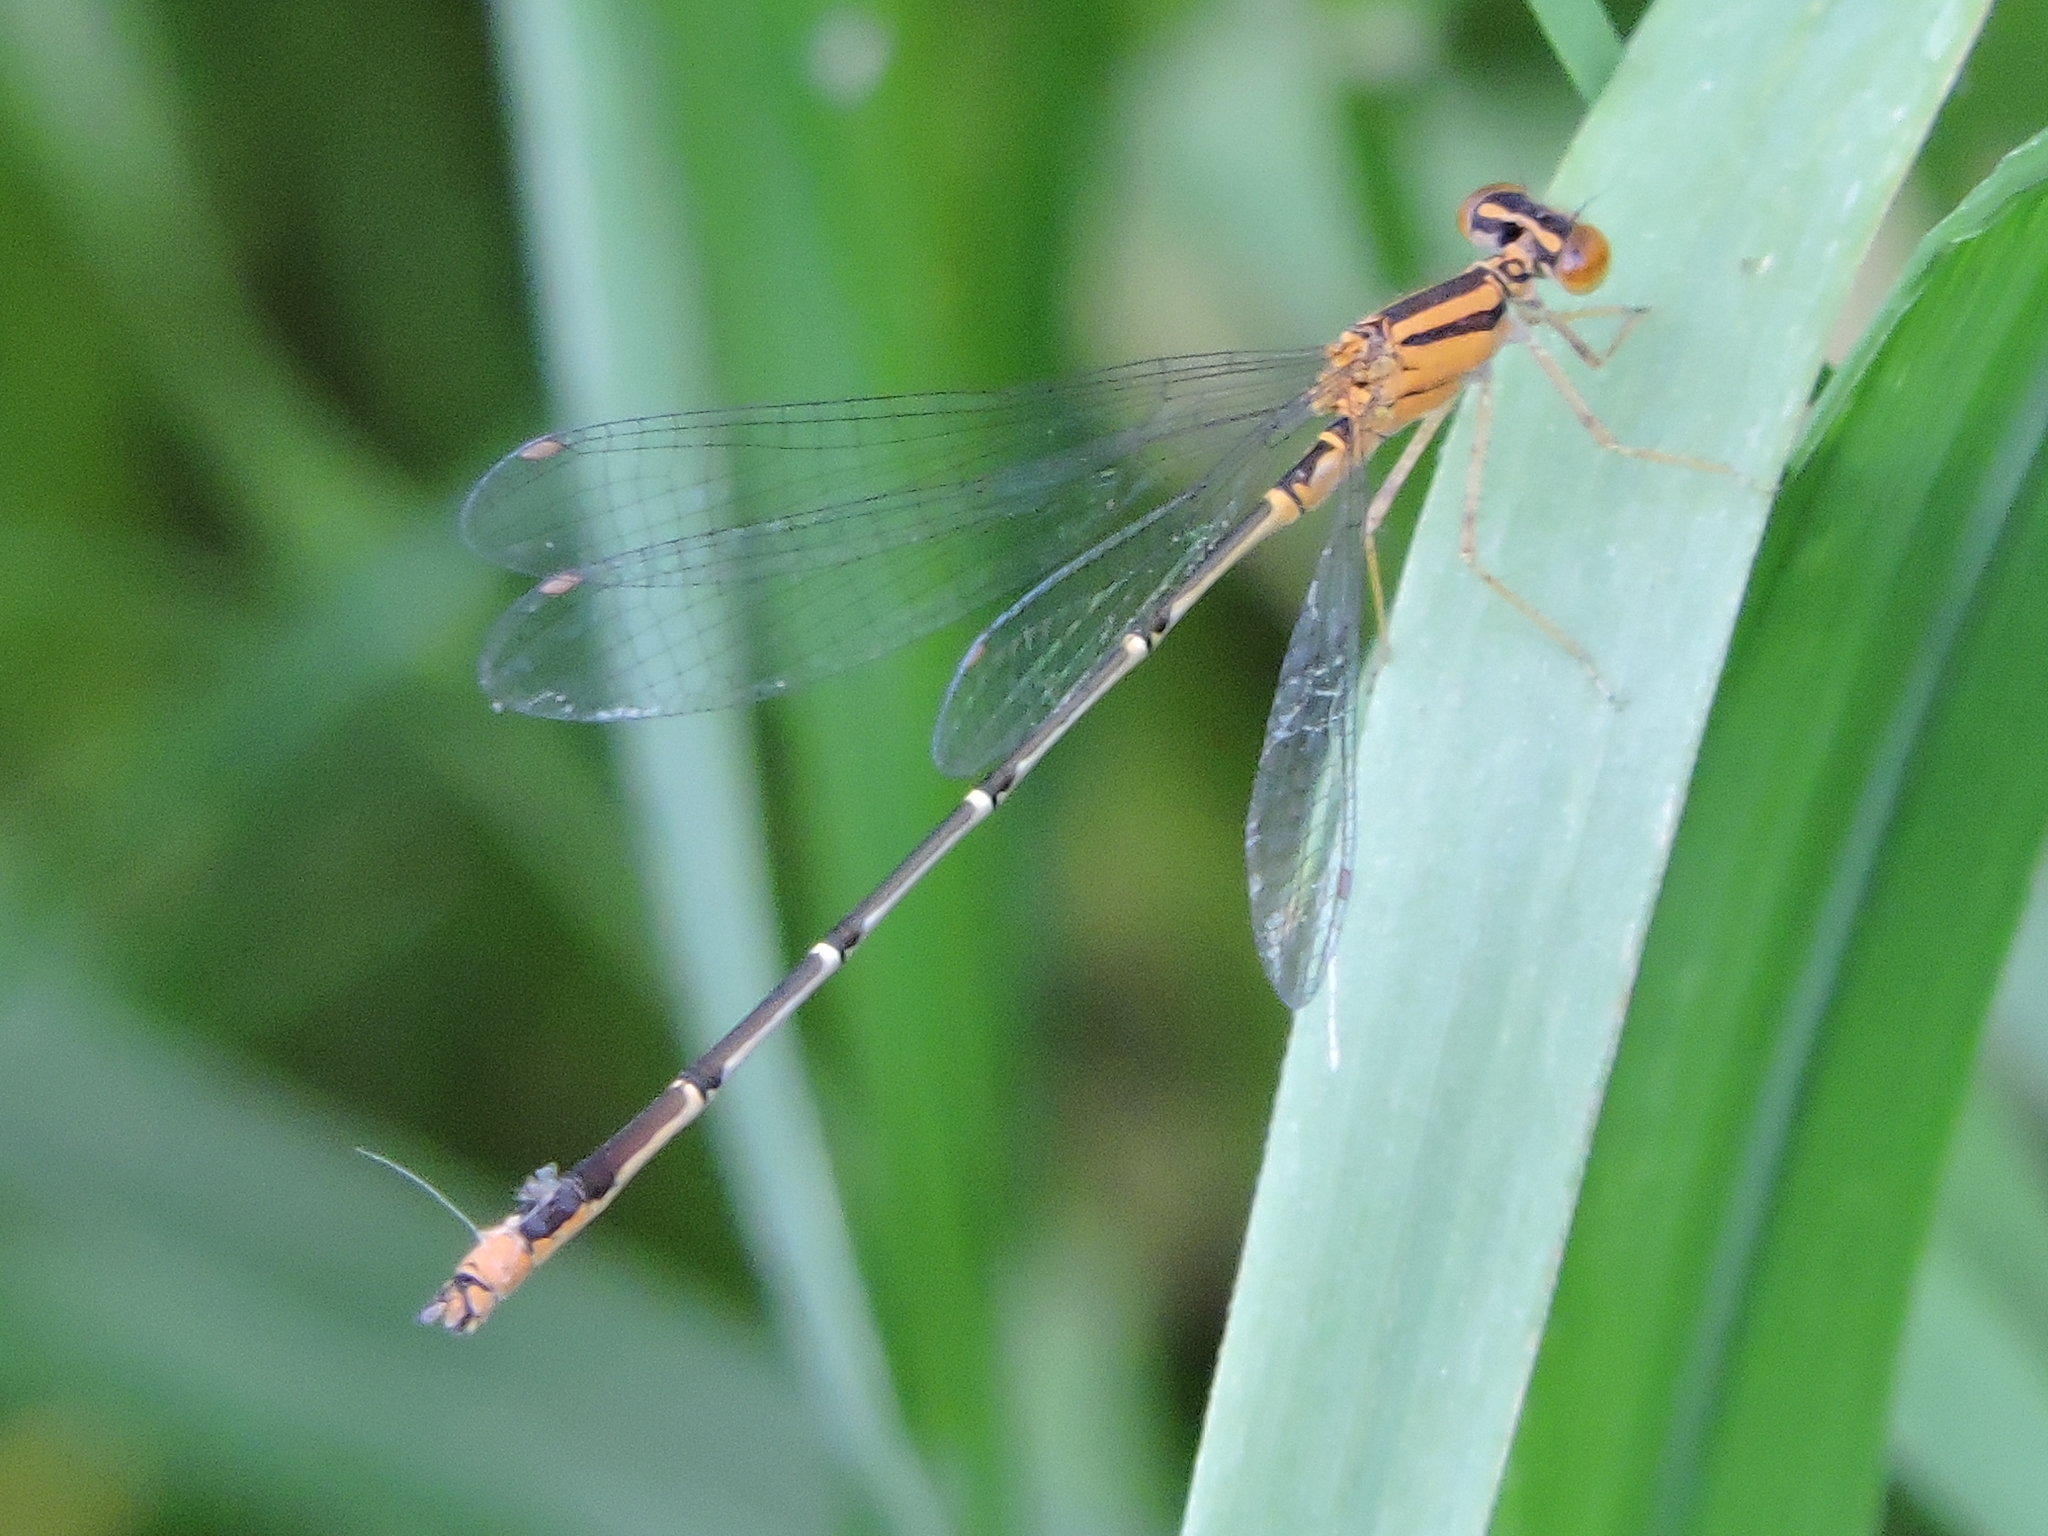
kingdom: Animalia
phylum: Arthropoda
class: Insecta
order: Odonata
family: Coenagrionidae
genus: Enallagma
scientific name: Enallagma signatum
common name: Orange bluet
